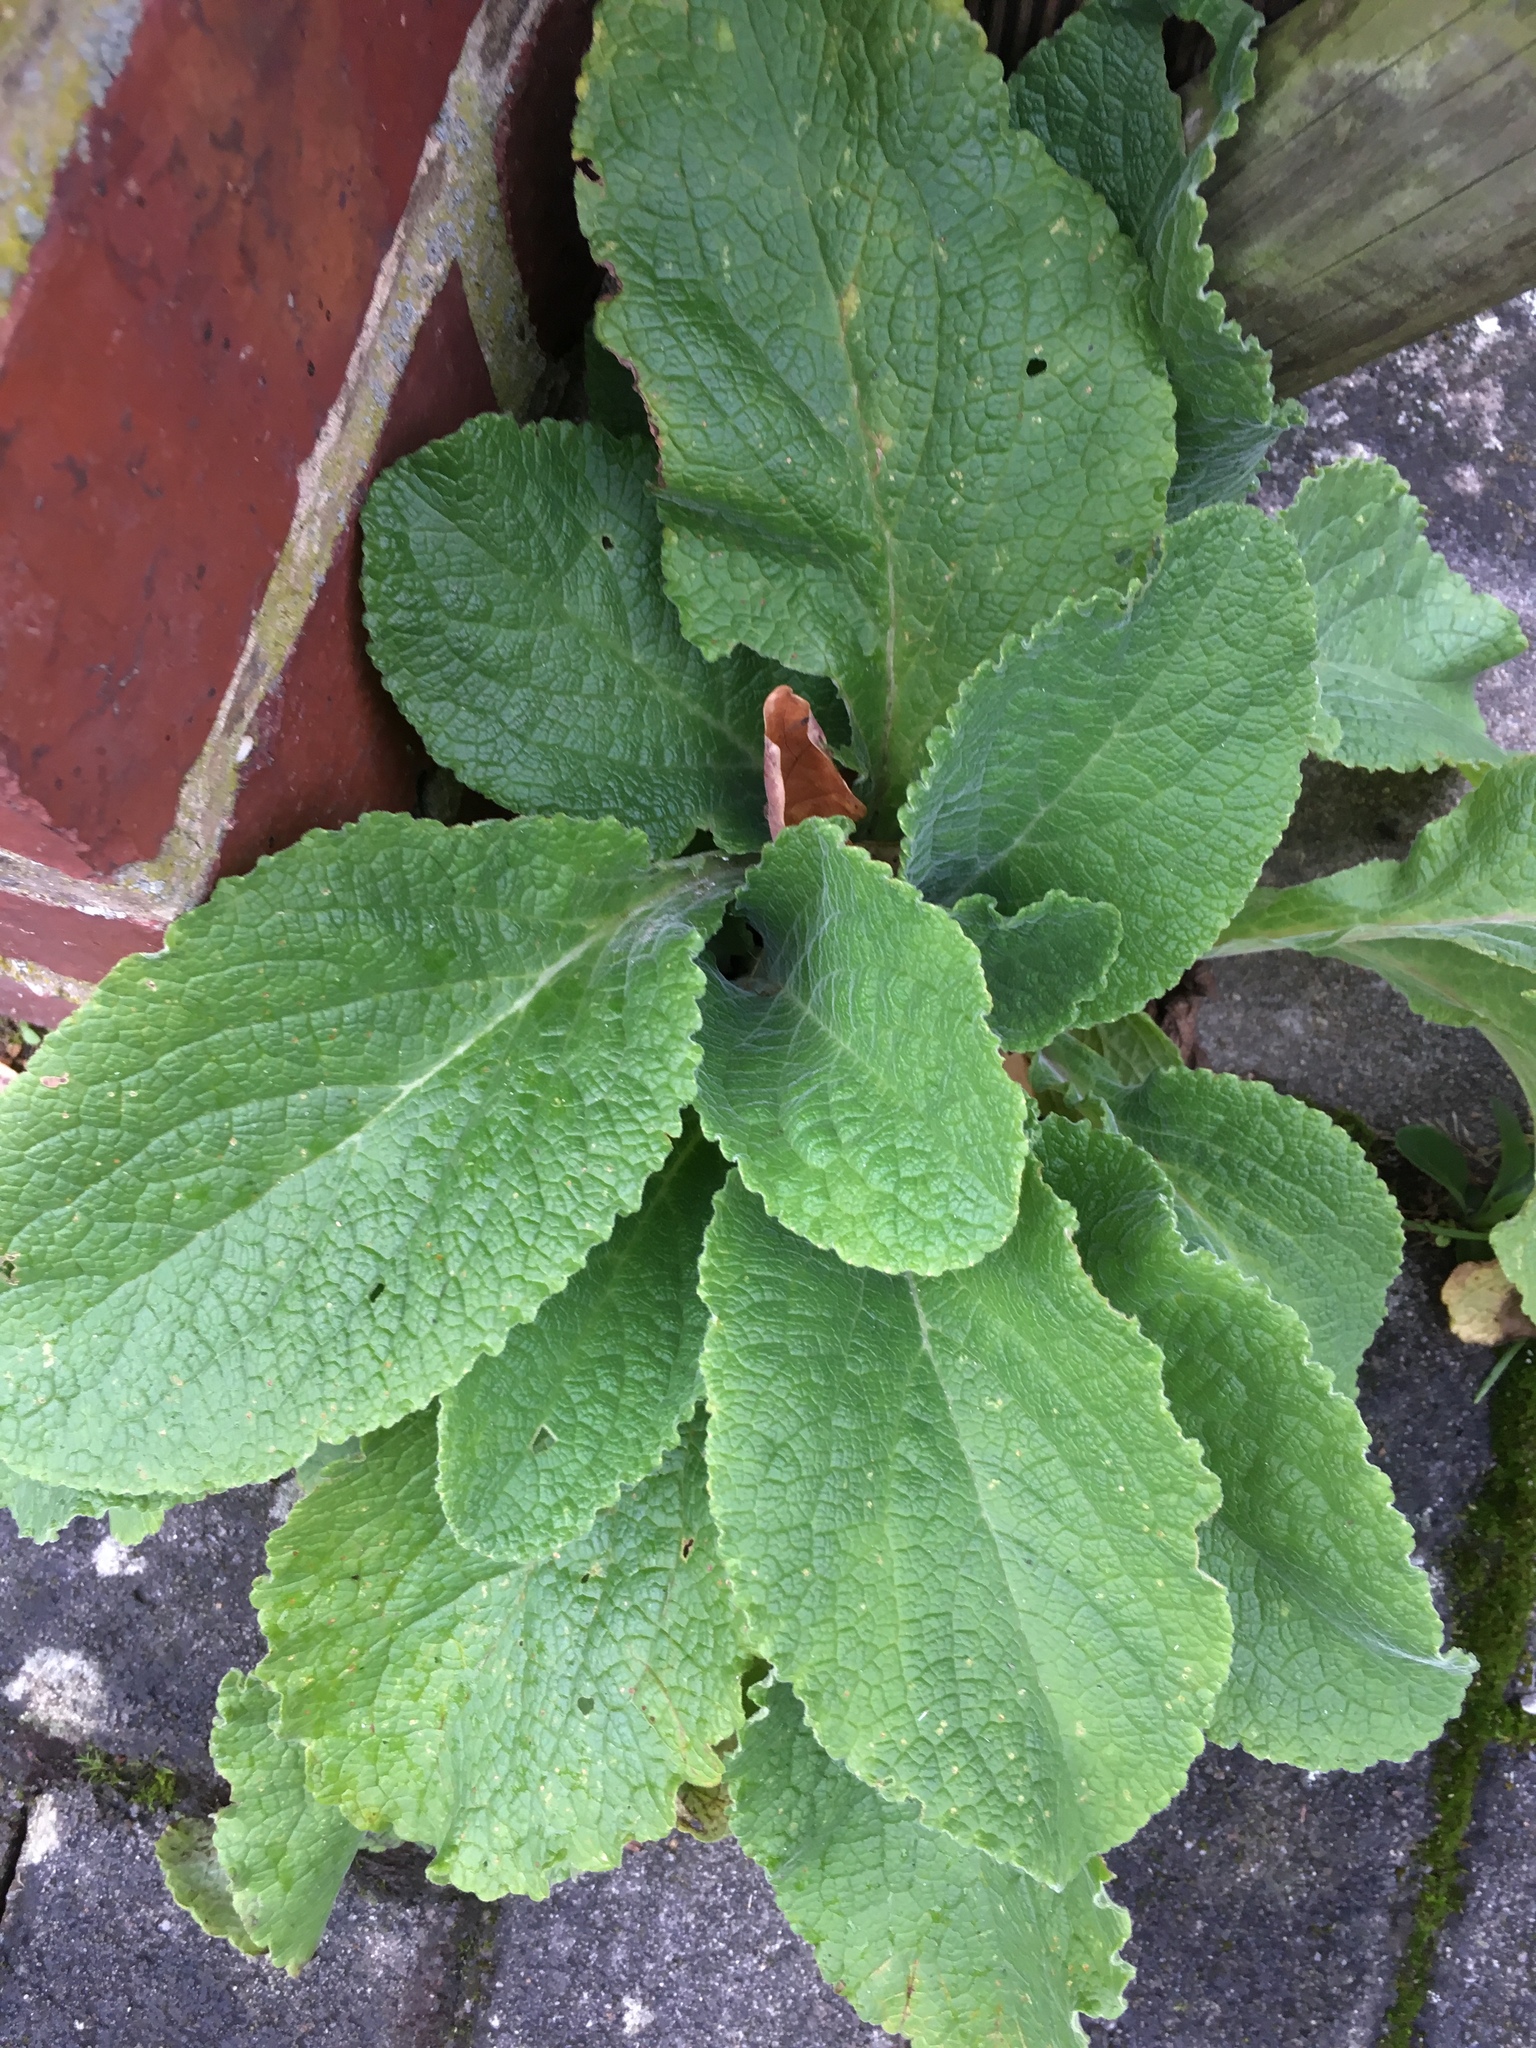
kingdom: Plantae
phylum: Tracheophyta
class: Magnoliopsida
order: Lamiales
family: Plantaginaceae
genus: Digitalis
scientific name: Digitalis purpurea
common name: Foxglove
